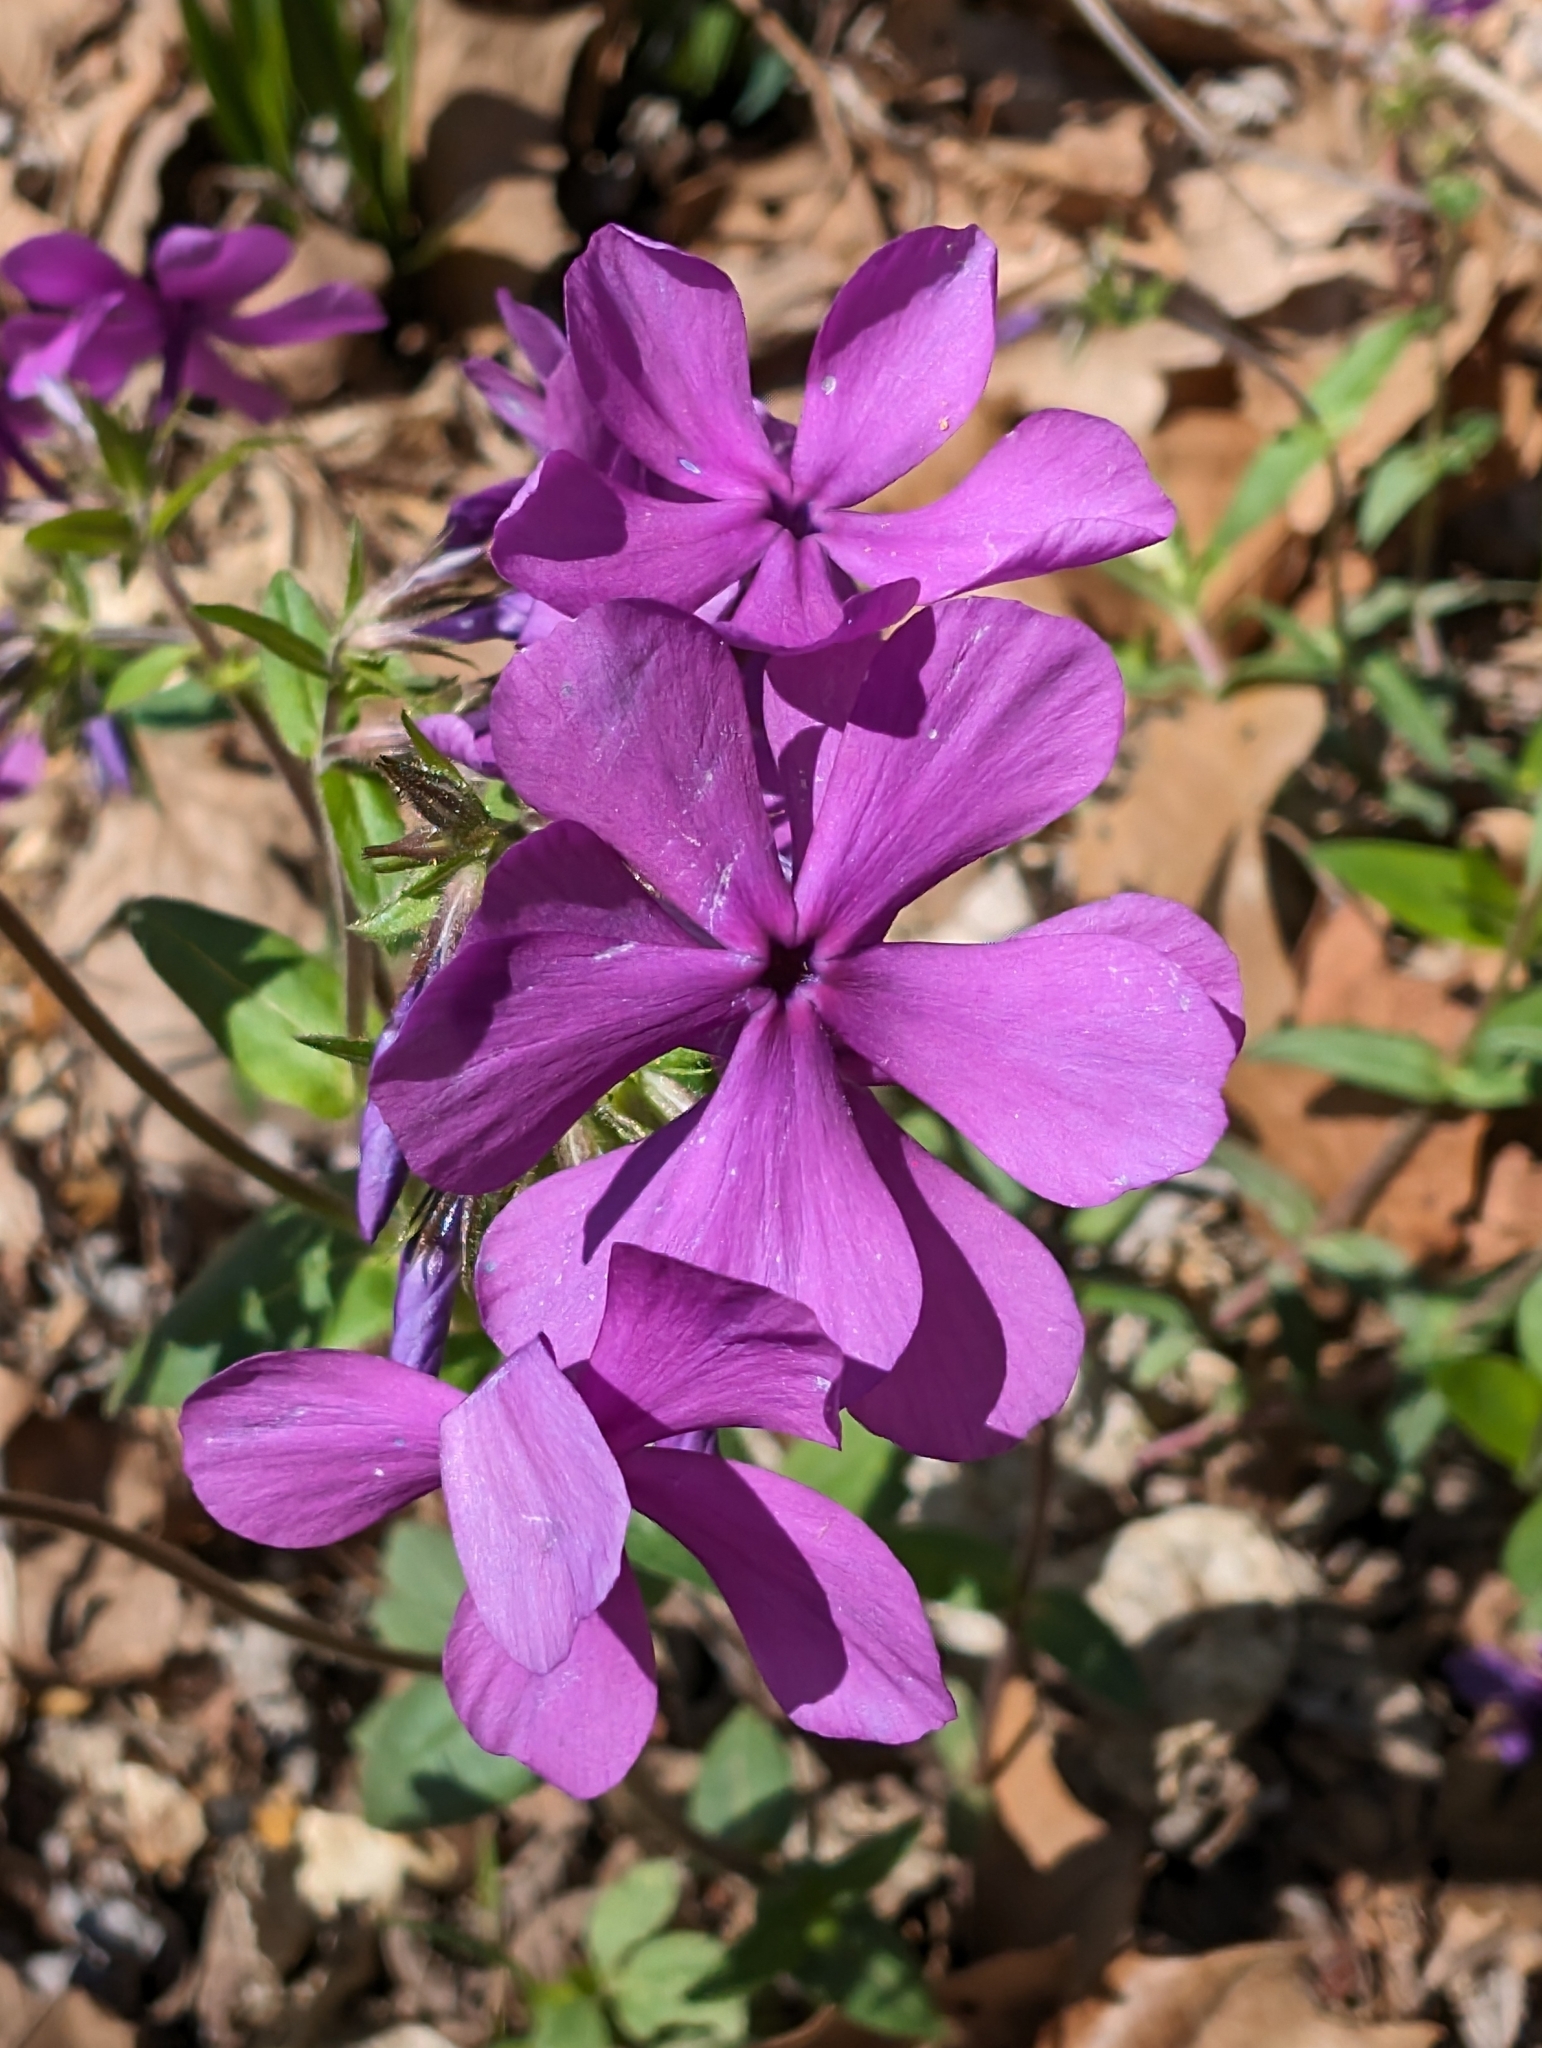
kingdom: Plantae
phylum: Tracheophyta
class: Magnoliopsida
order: Ericales
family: Polemoniaceae
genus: Phlox
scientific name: Phlox divaricata
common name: Blue phlox
